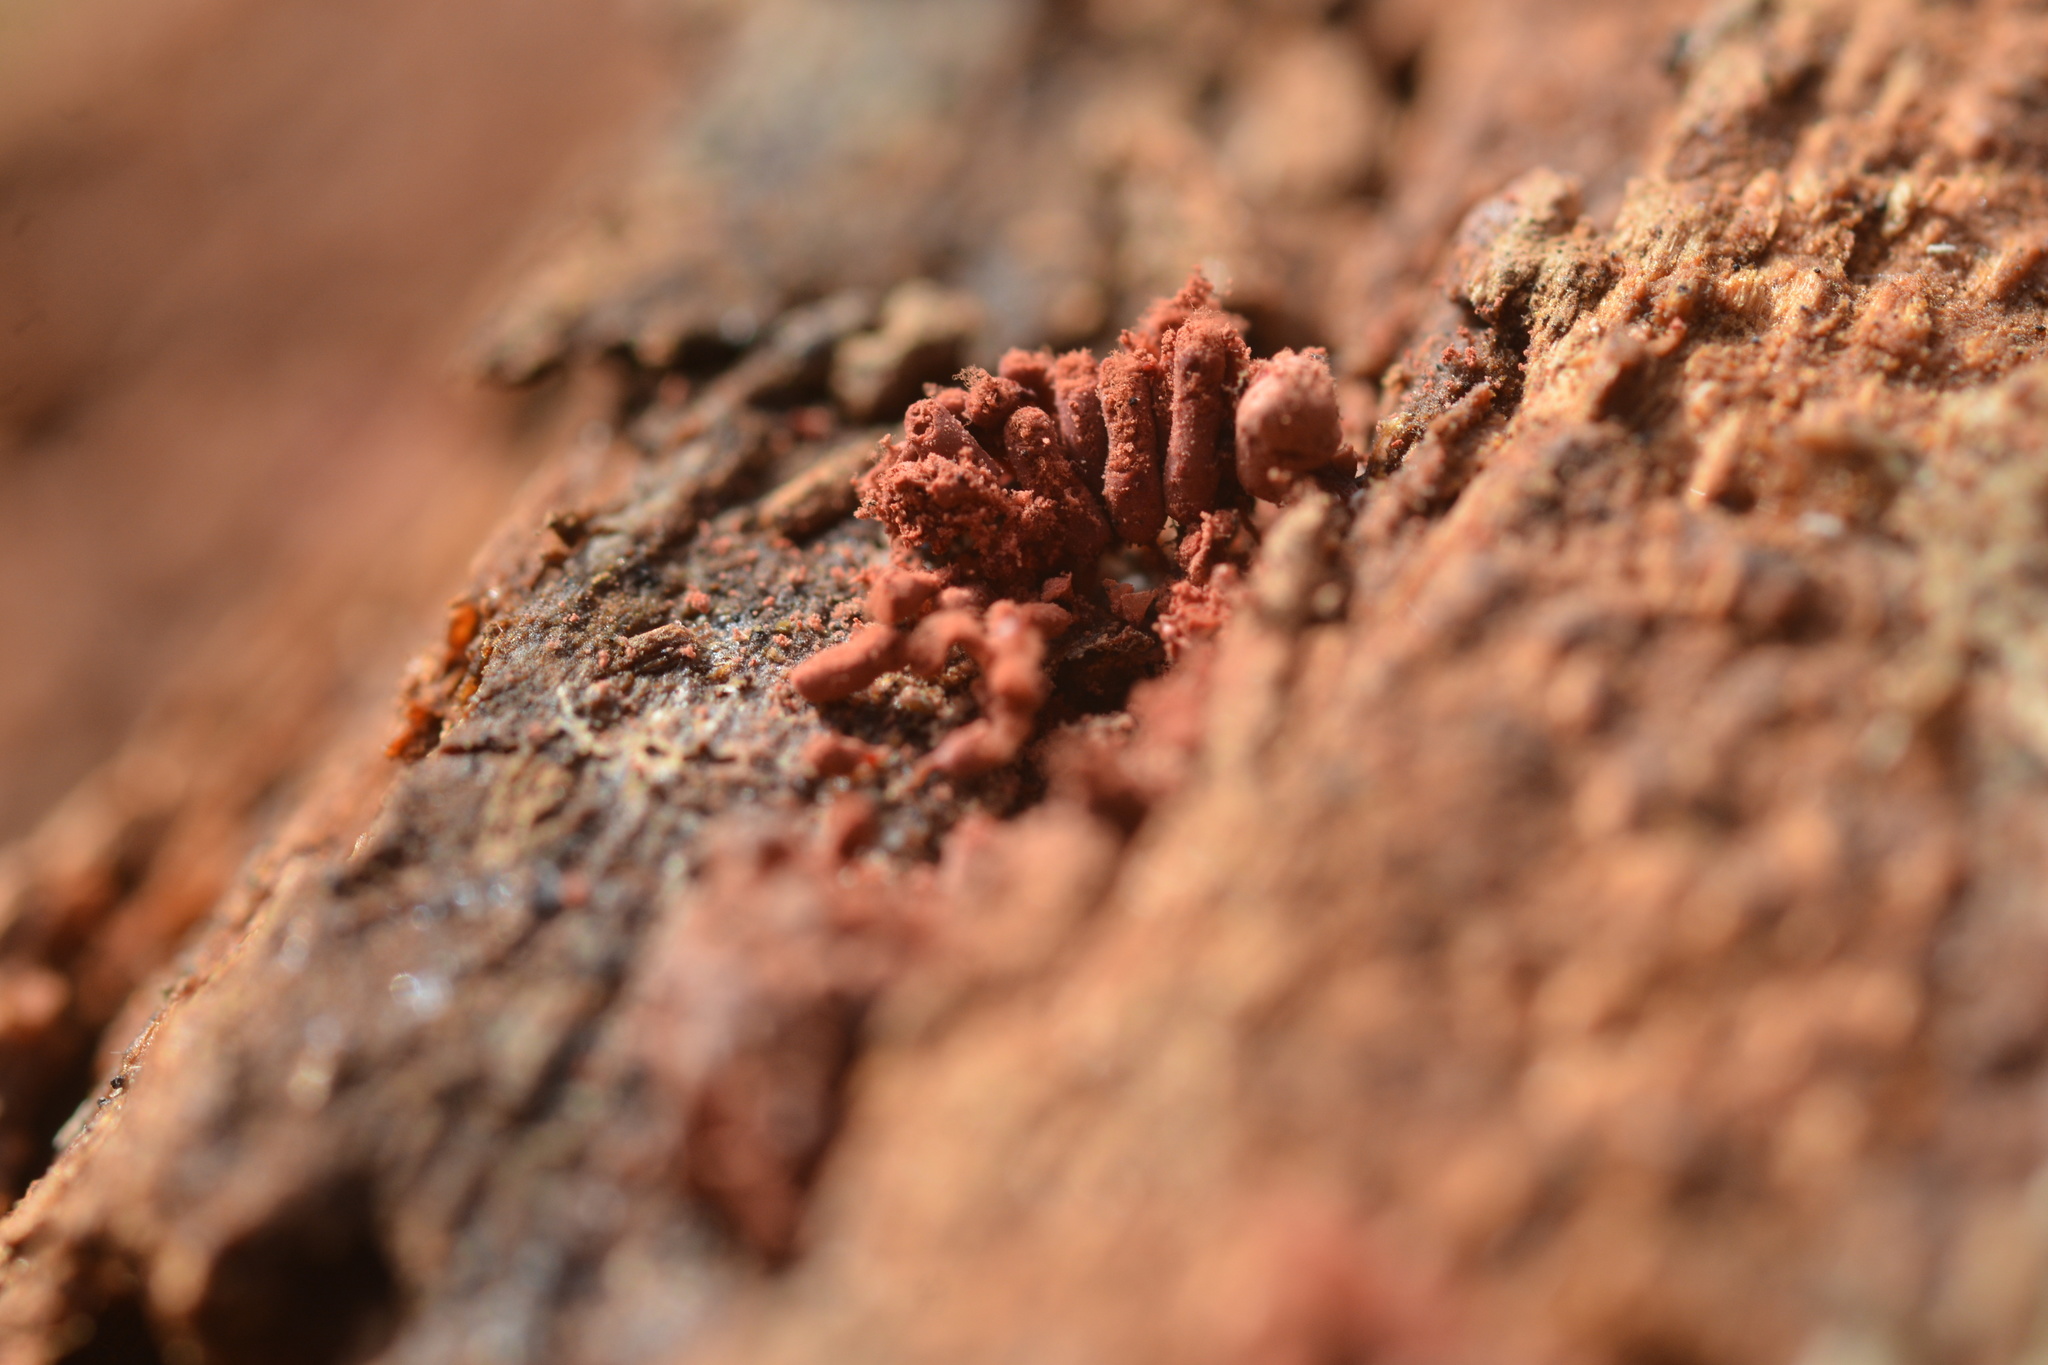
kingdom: Protozoa
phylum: Mycetozoa
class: Myxomycetes
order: Trichiales
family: Arcyriaceae
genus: Arcyria
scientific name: Arcyria denudata
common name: Carnival candy slime mold
